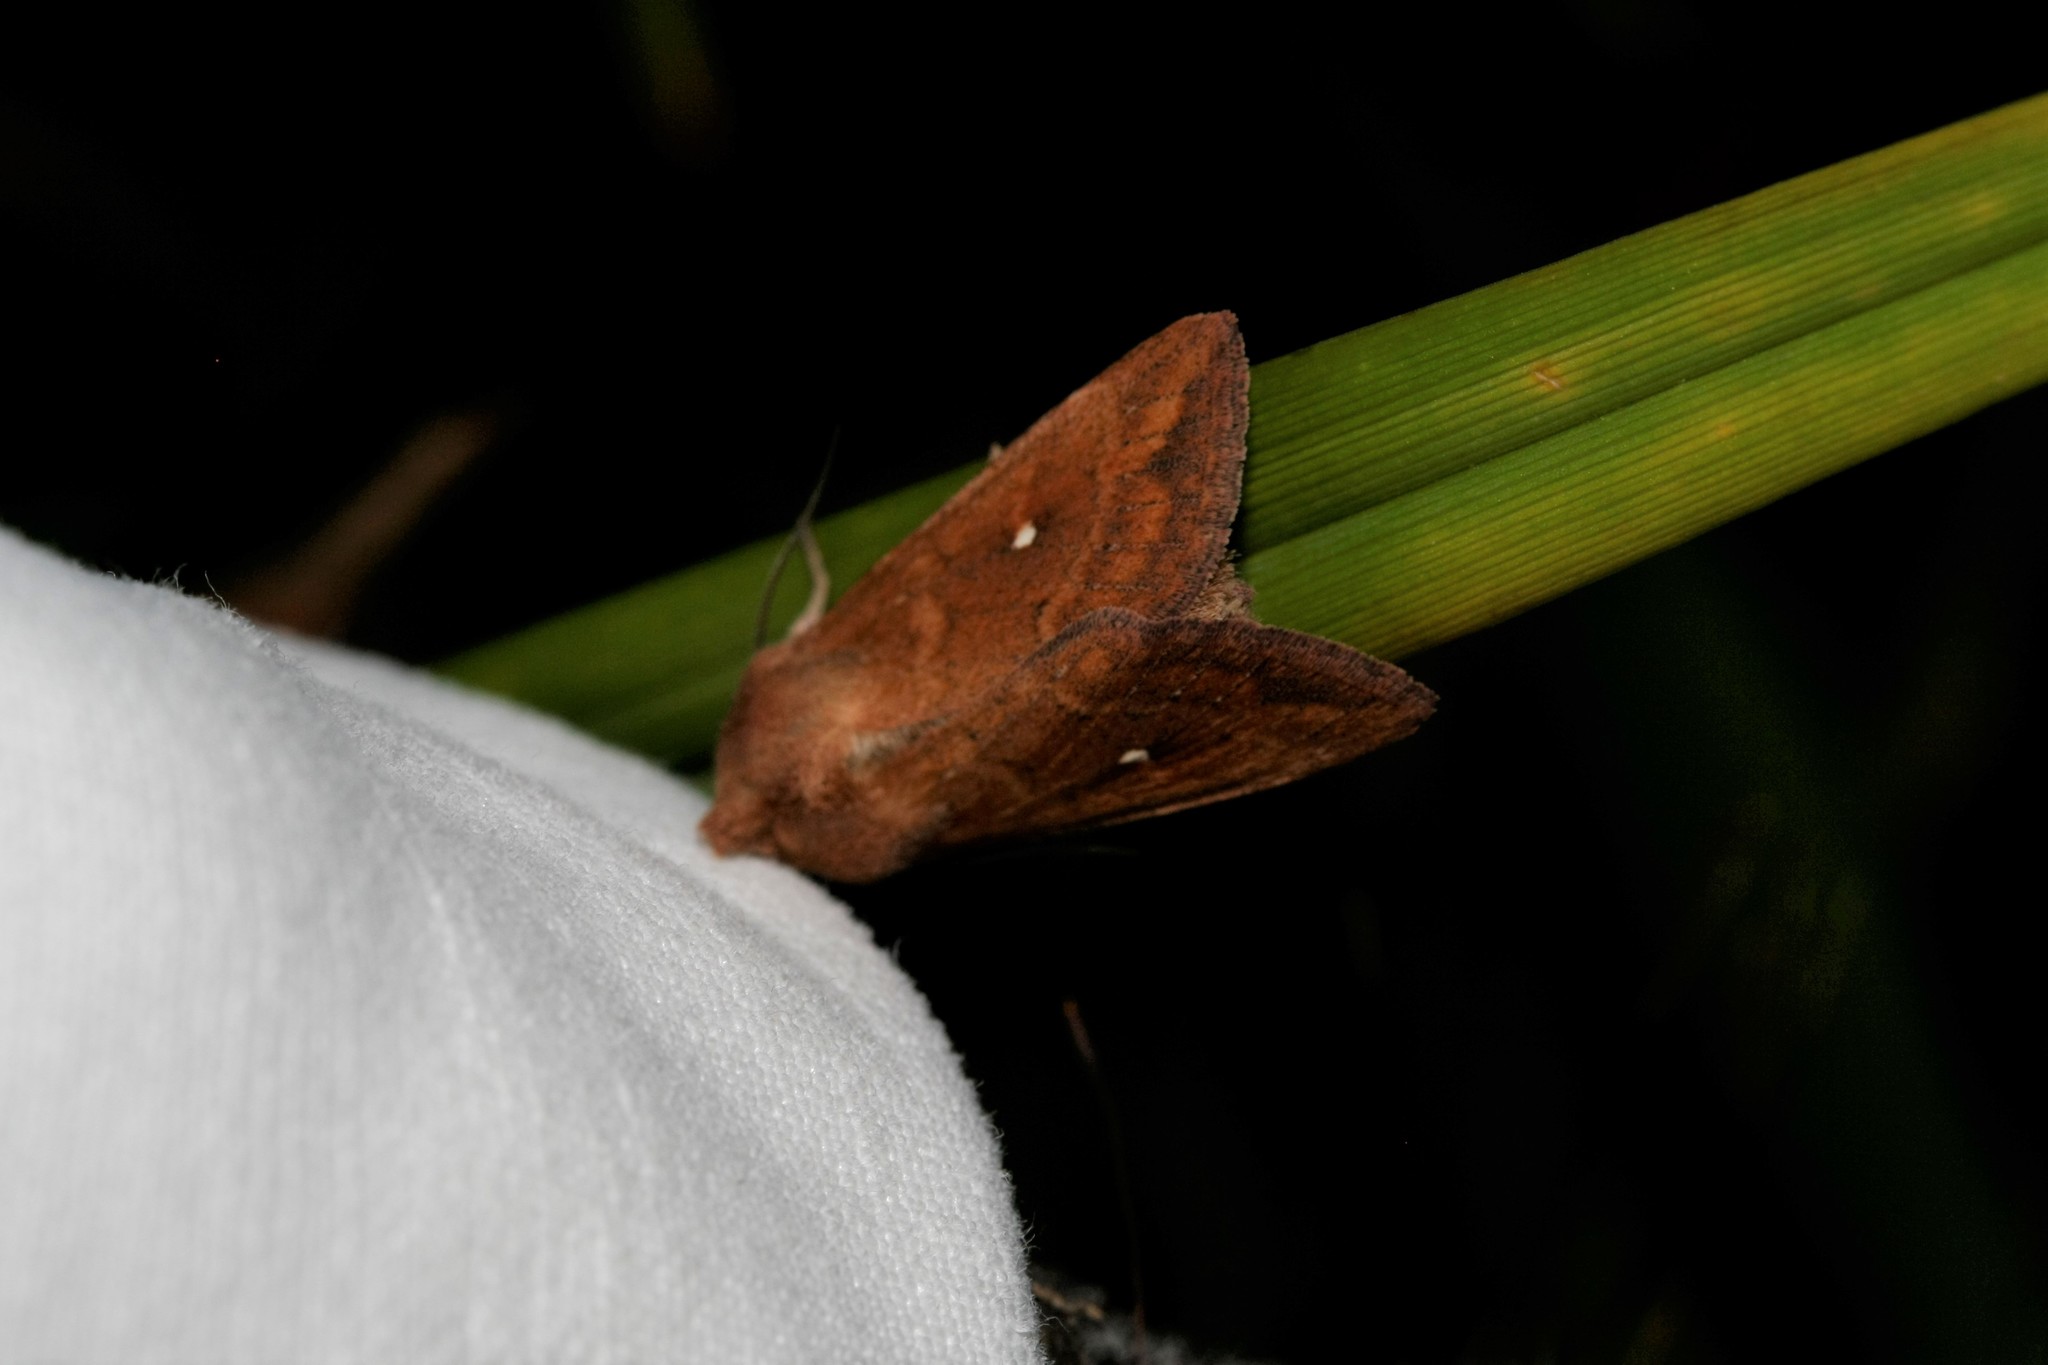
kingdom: Animalia
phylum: Arthropoda
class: Insecta
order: Lepidoptera
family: Noctuidae
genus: Mythimna
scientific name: Mythimna albipuncta
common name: White-point
